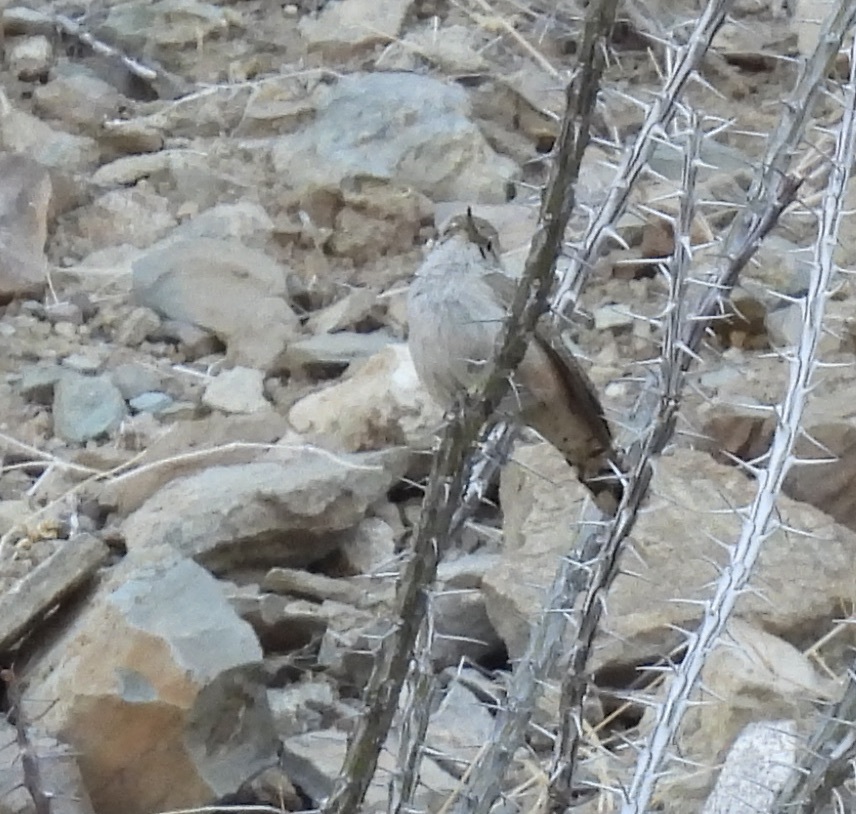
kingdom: Animalia
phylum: Chordata
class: Aves
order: Passeriformes
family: Troglodytidae
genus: Salpinctes
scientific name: Salpinctes obsoletus
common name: Rock wren
